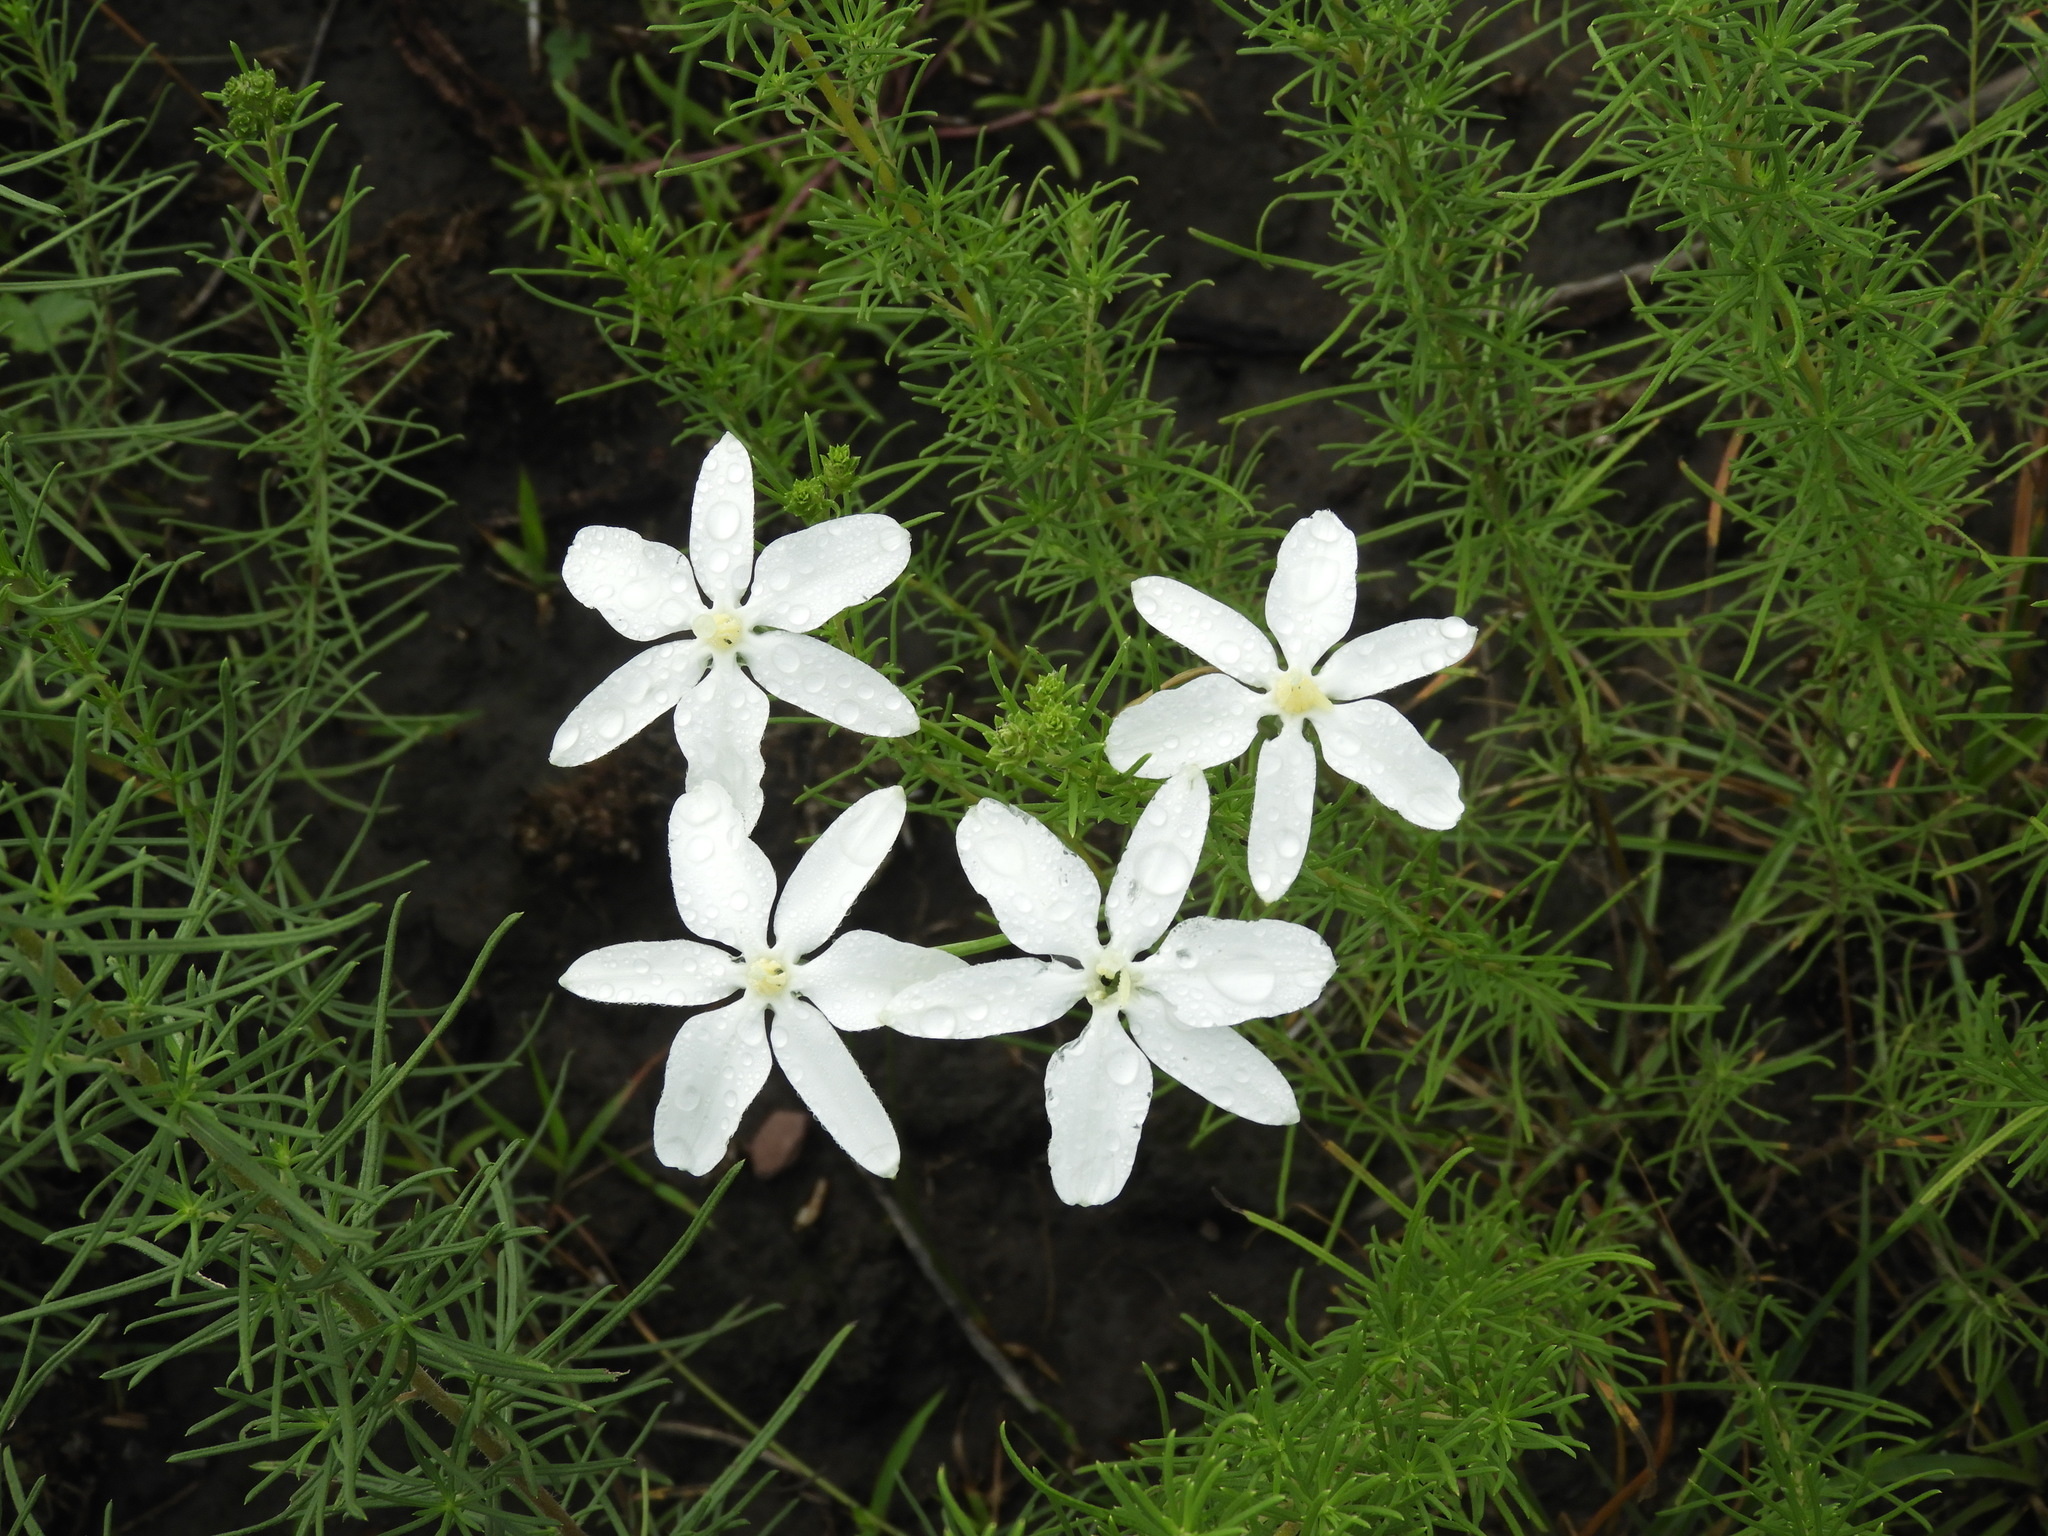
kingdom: Plantae
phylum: Tracheophyta
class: Liliopsida
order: Asparagales
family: Asparagaceae
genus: Milla
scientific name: Milla biflora
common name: Mexican-star
